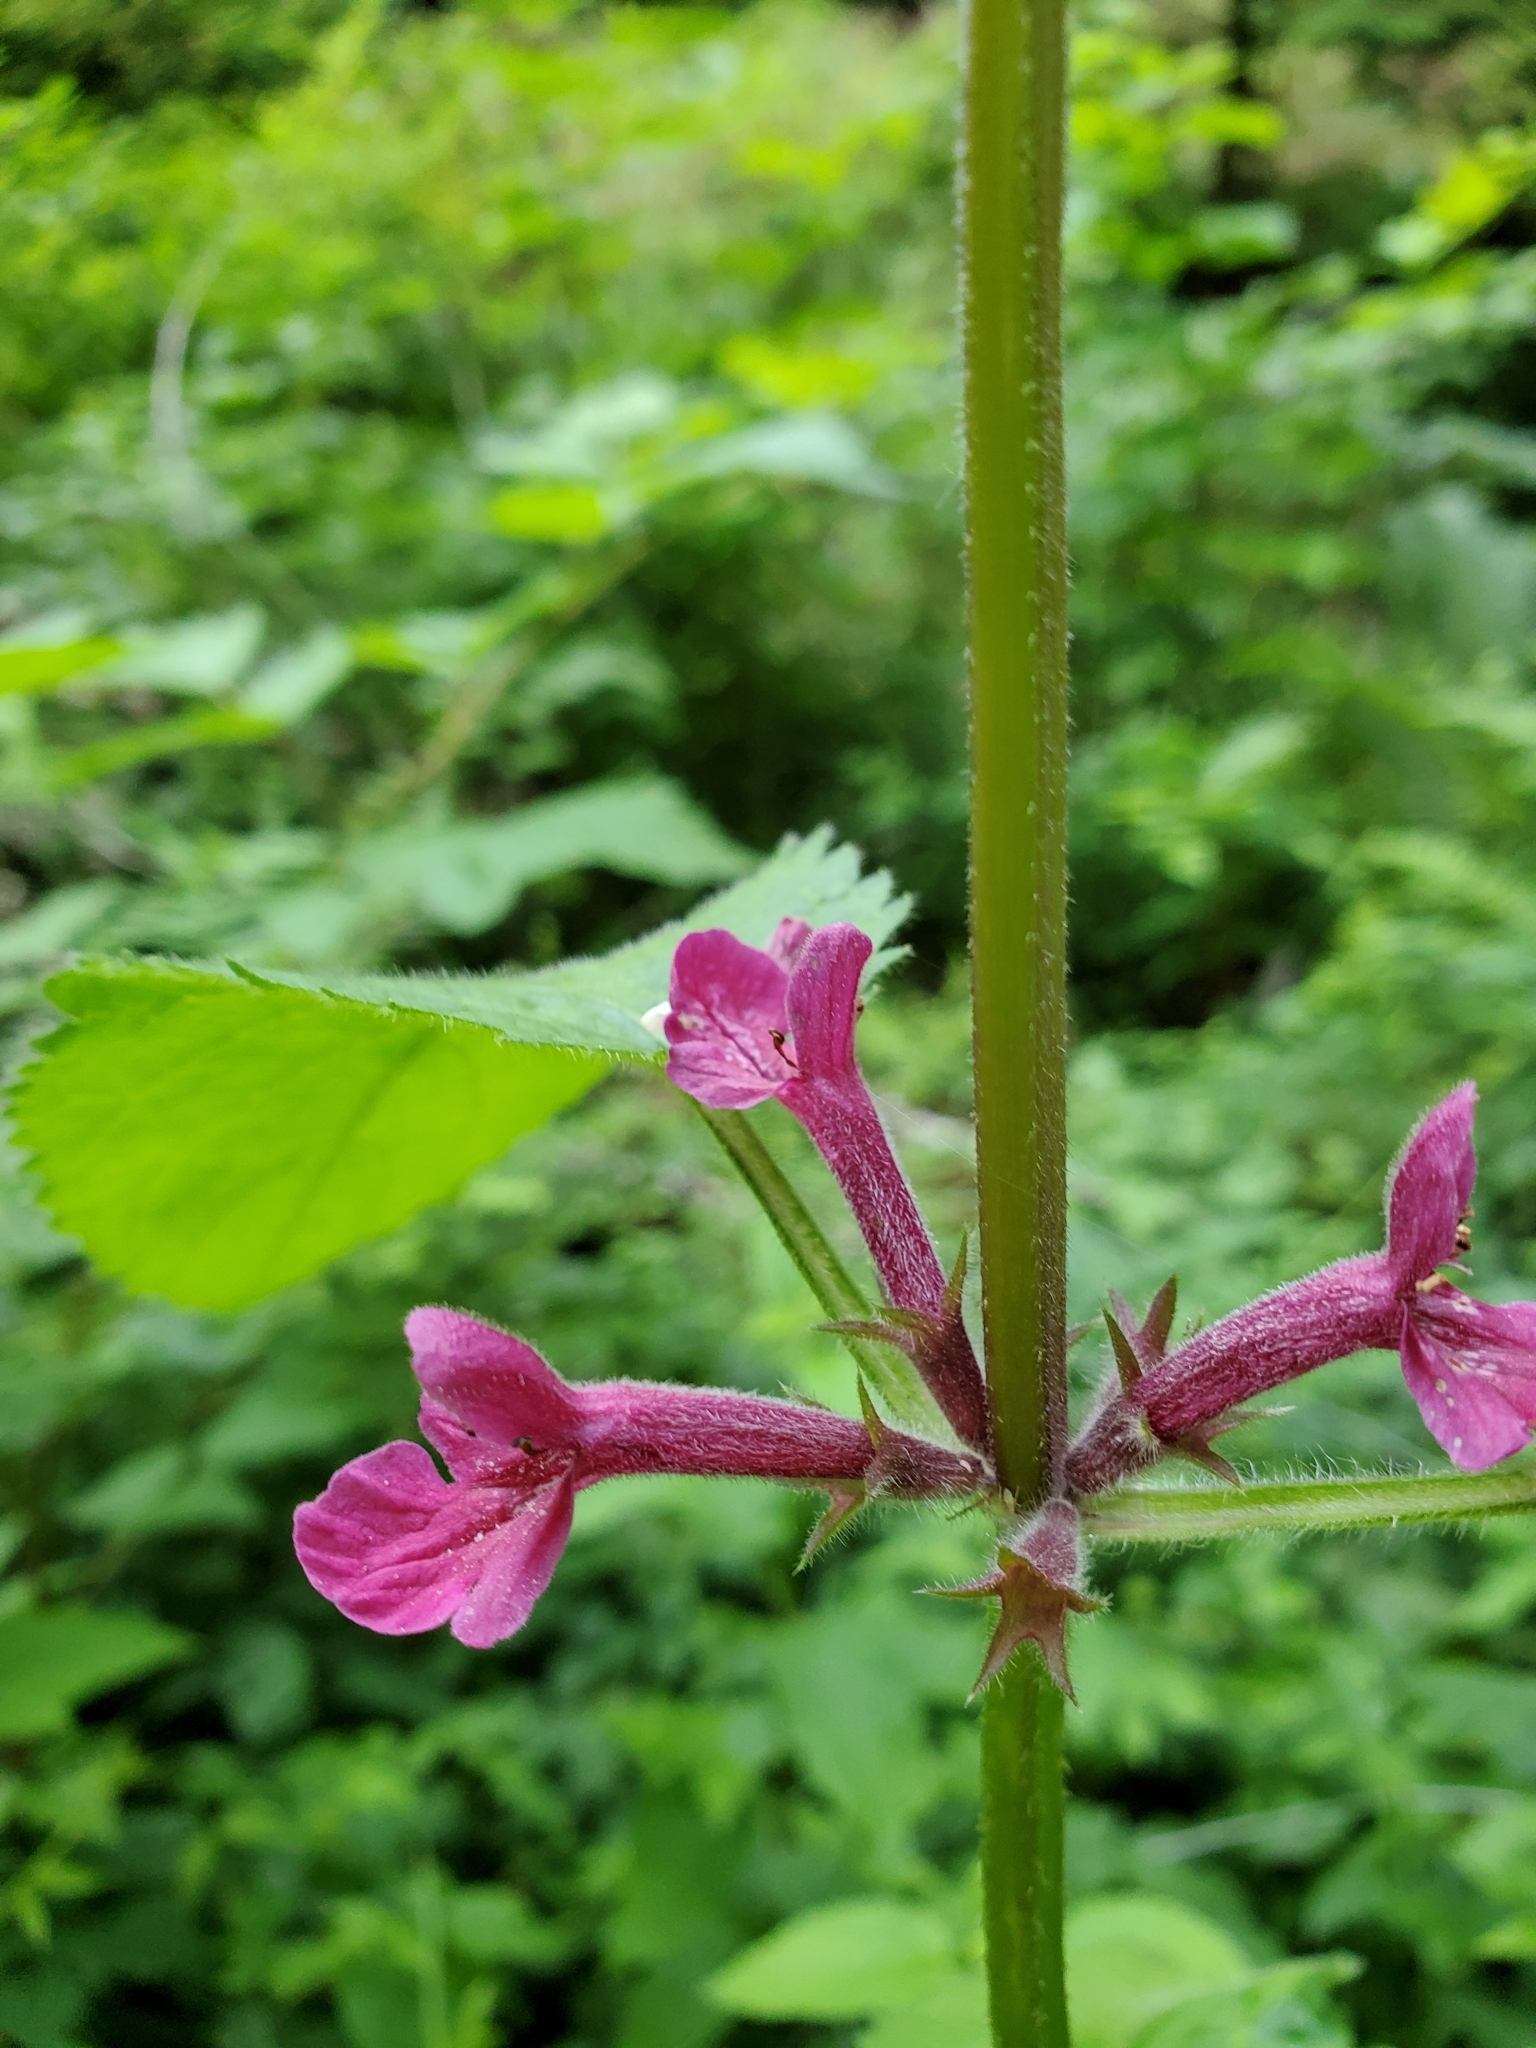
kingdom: Plantae
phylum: Tracheophyta
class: Magnoliopsida
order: Lamiales
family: Lamiaceae
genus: Stachys
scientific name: Stachys chamissonis
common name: Coastal hedge-nettle
